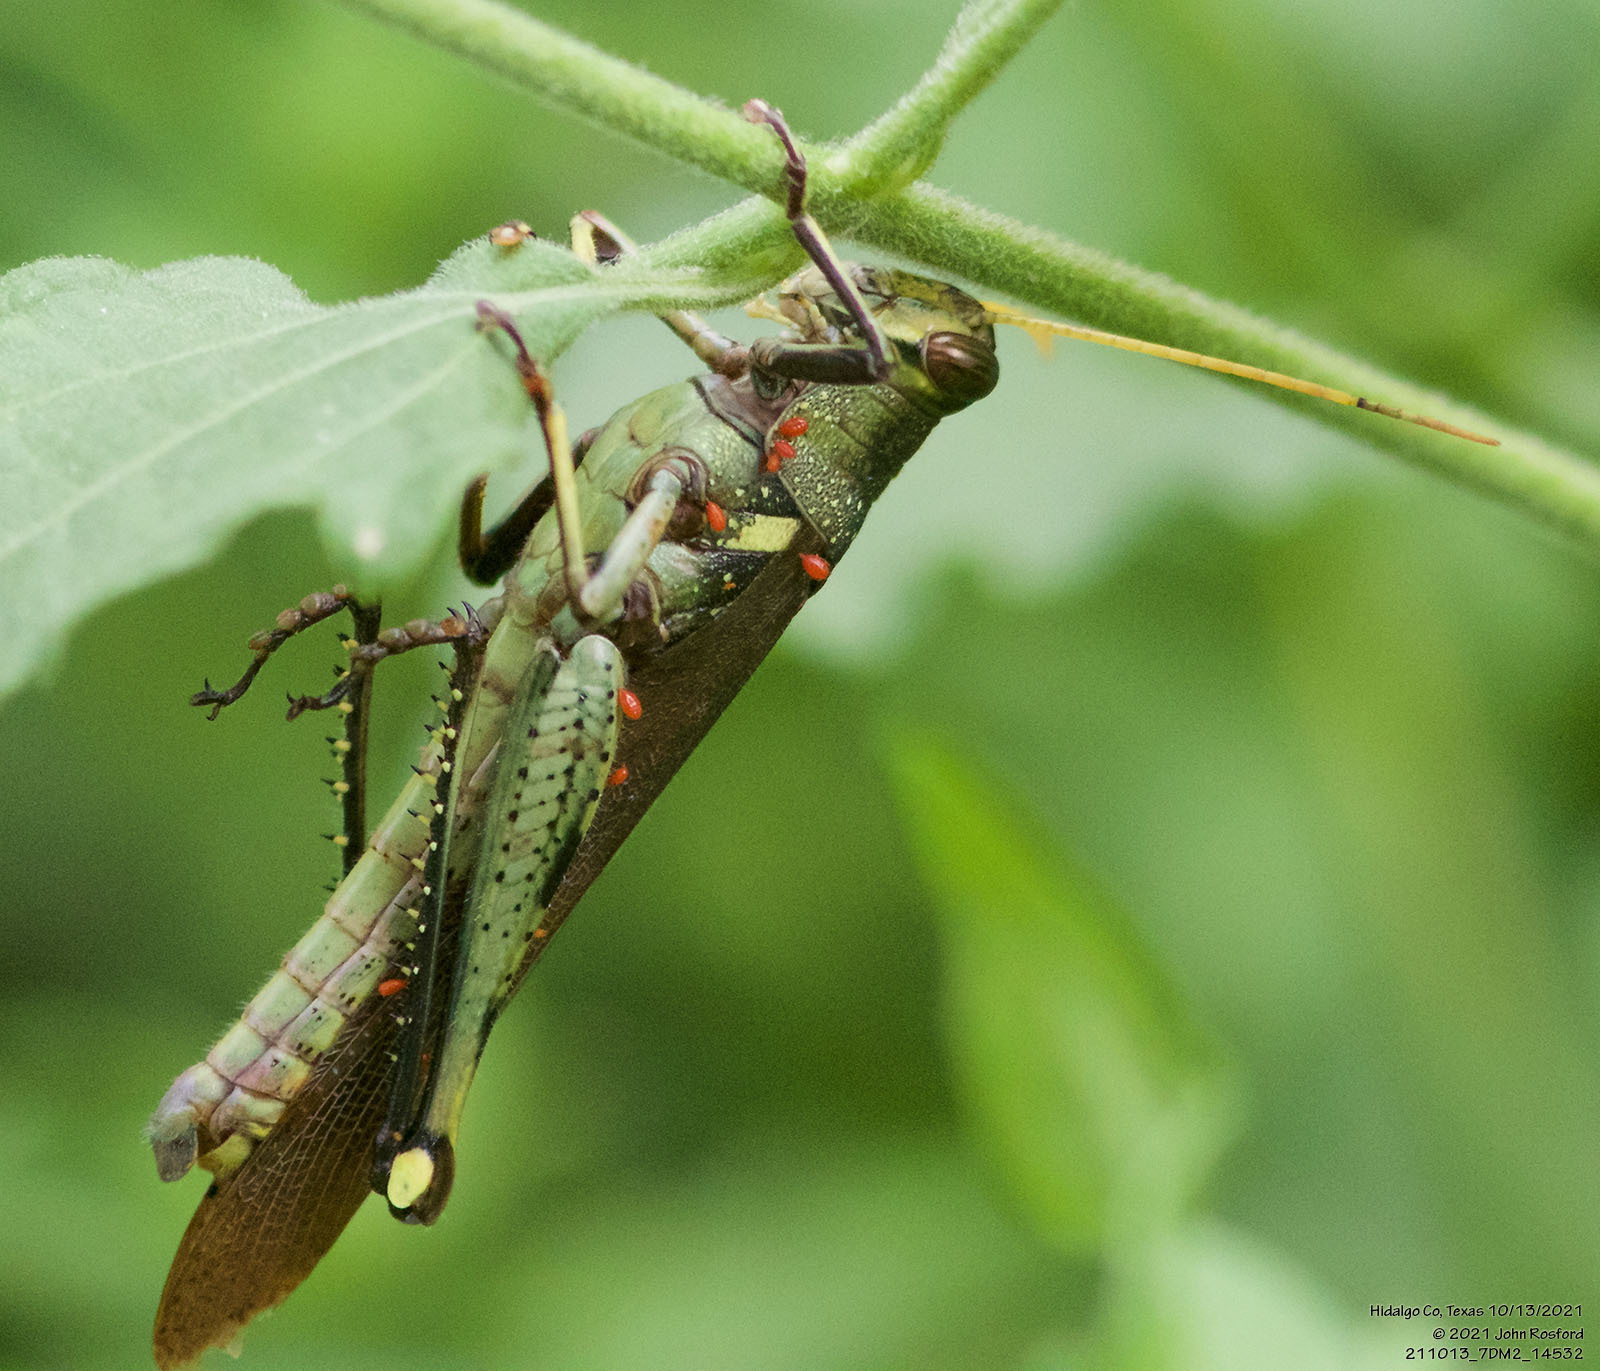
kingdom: Animalia
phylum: Arthropoda
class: Insecta
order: Orthoptera
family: Acrididae
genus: Schistocerca
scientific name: Schistocerca obscura
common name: Obscure bird grasshopper
